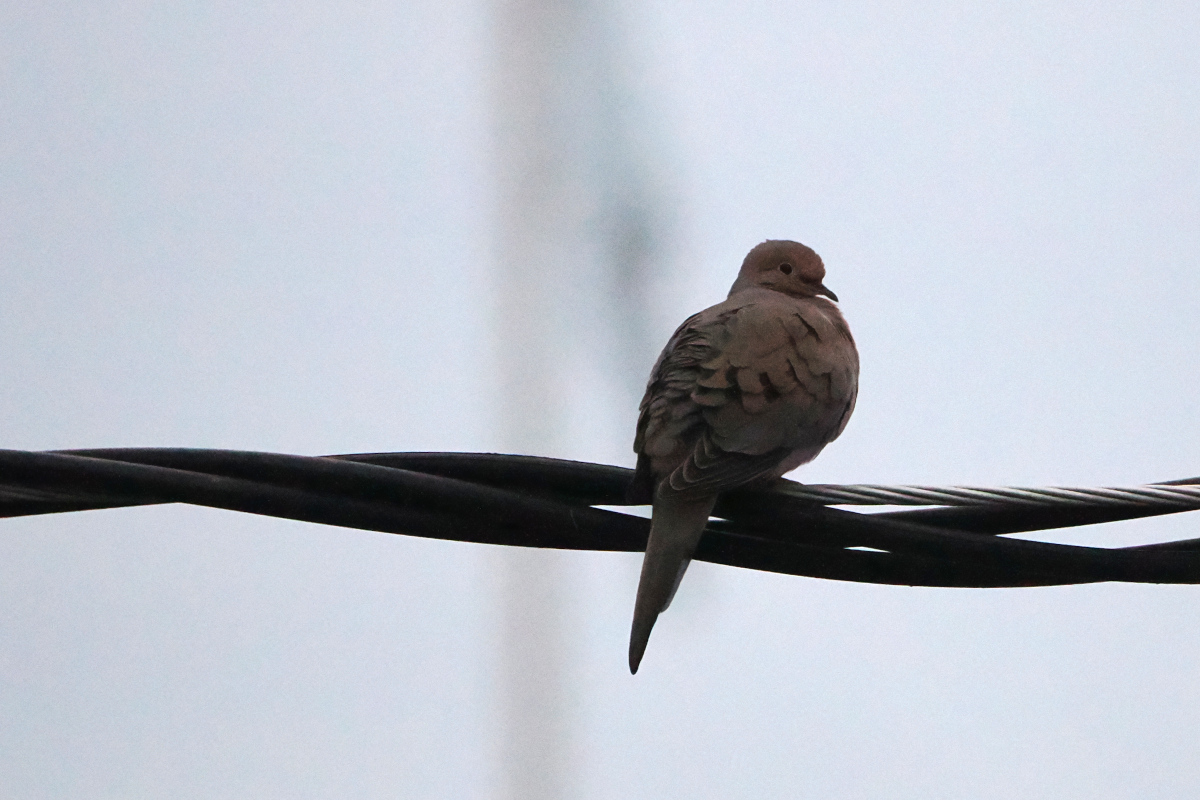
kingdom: Animalia
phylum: Chordata
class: Aves
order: Columbiformes
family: Columbidae
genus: Zenaida
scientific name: Zenaida macroura
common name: Mourning dove
